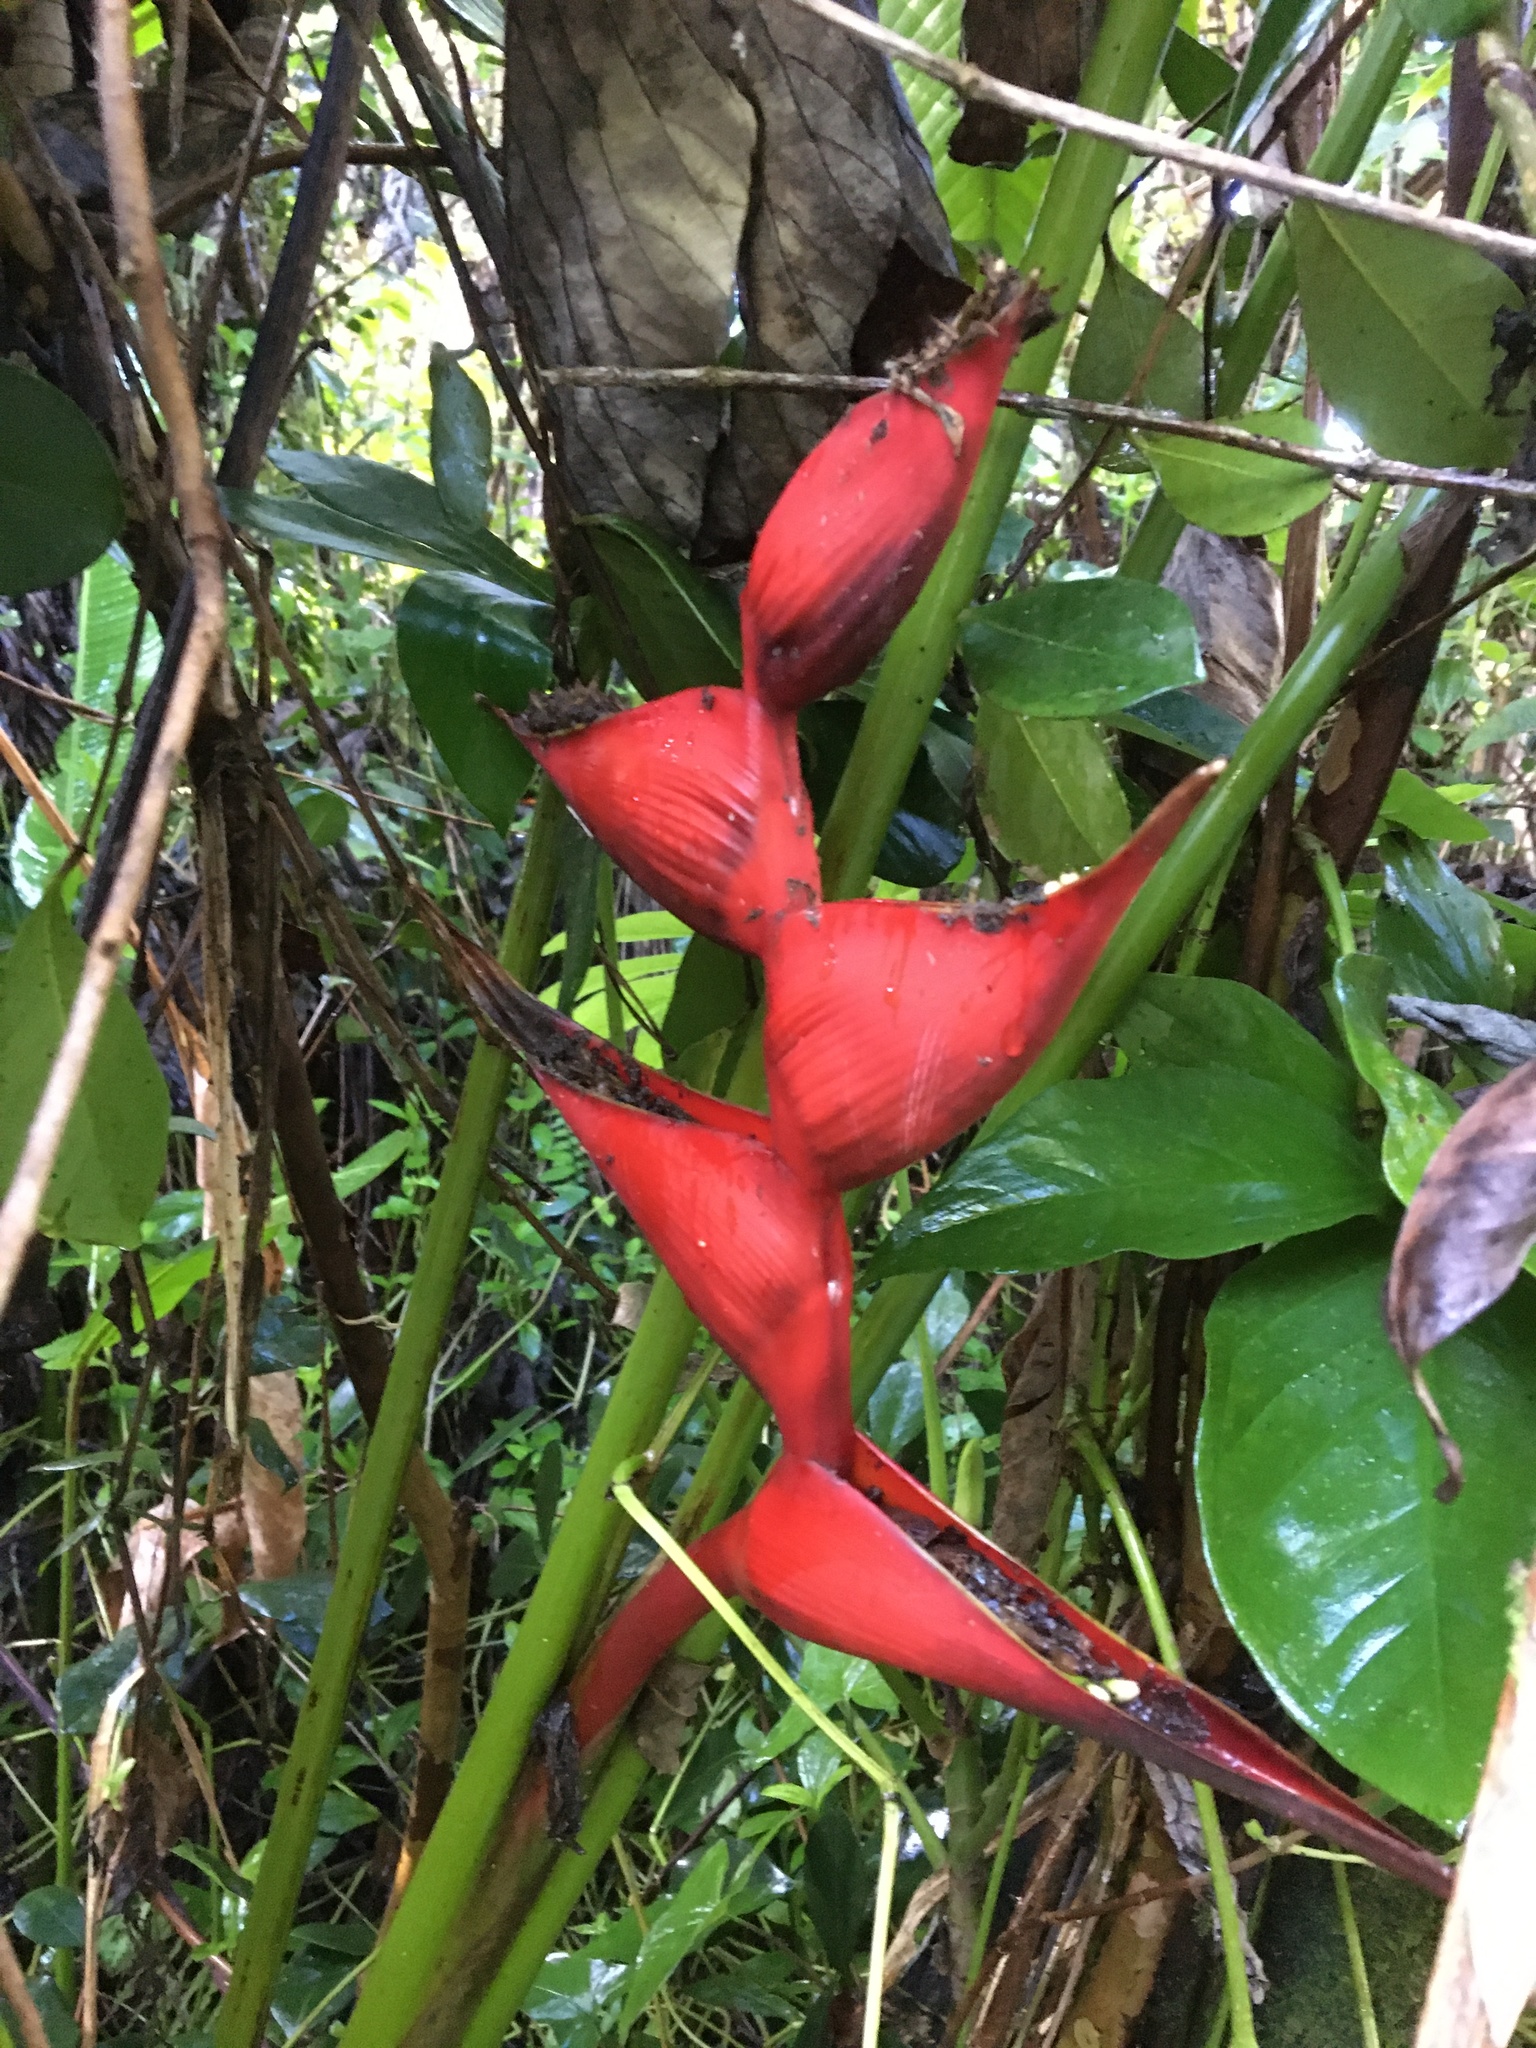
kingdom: Plantae
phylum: Tracheophyta
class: Liliopsida
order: Zingiberales
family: Heliconiaceae
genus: Heliconia
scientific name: Heliconia bihai
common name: Macaw flower
